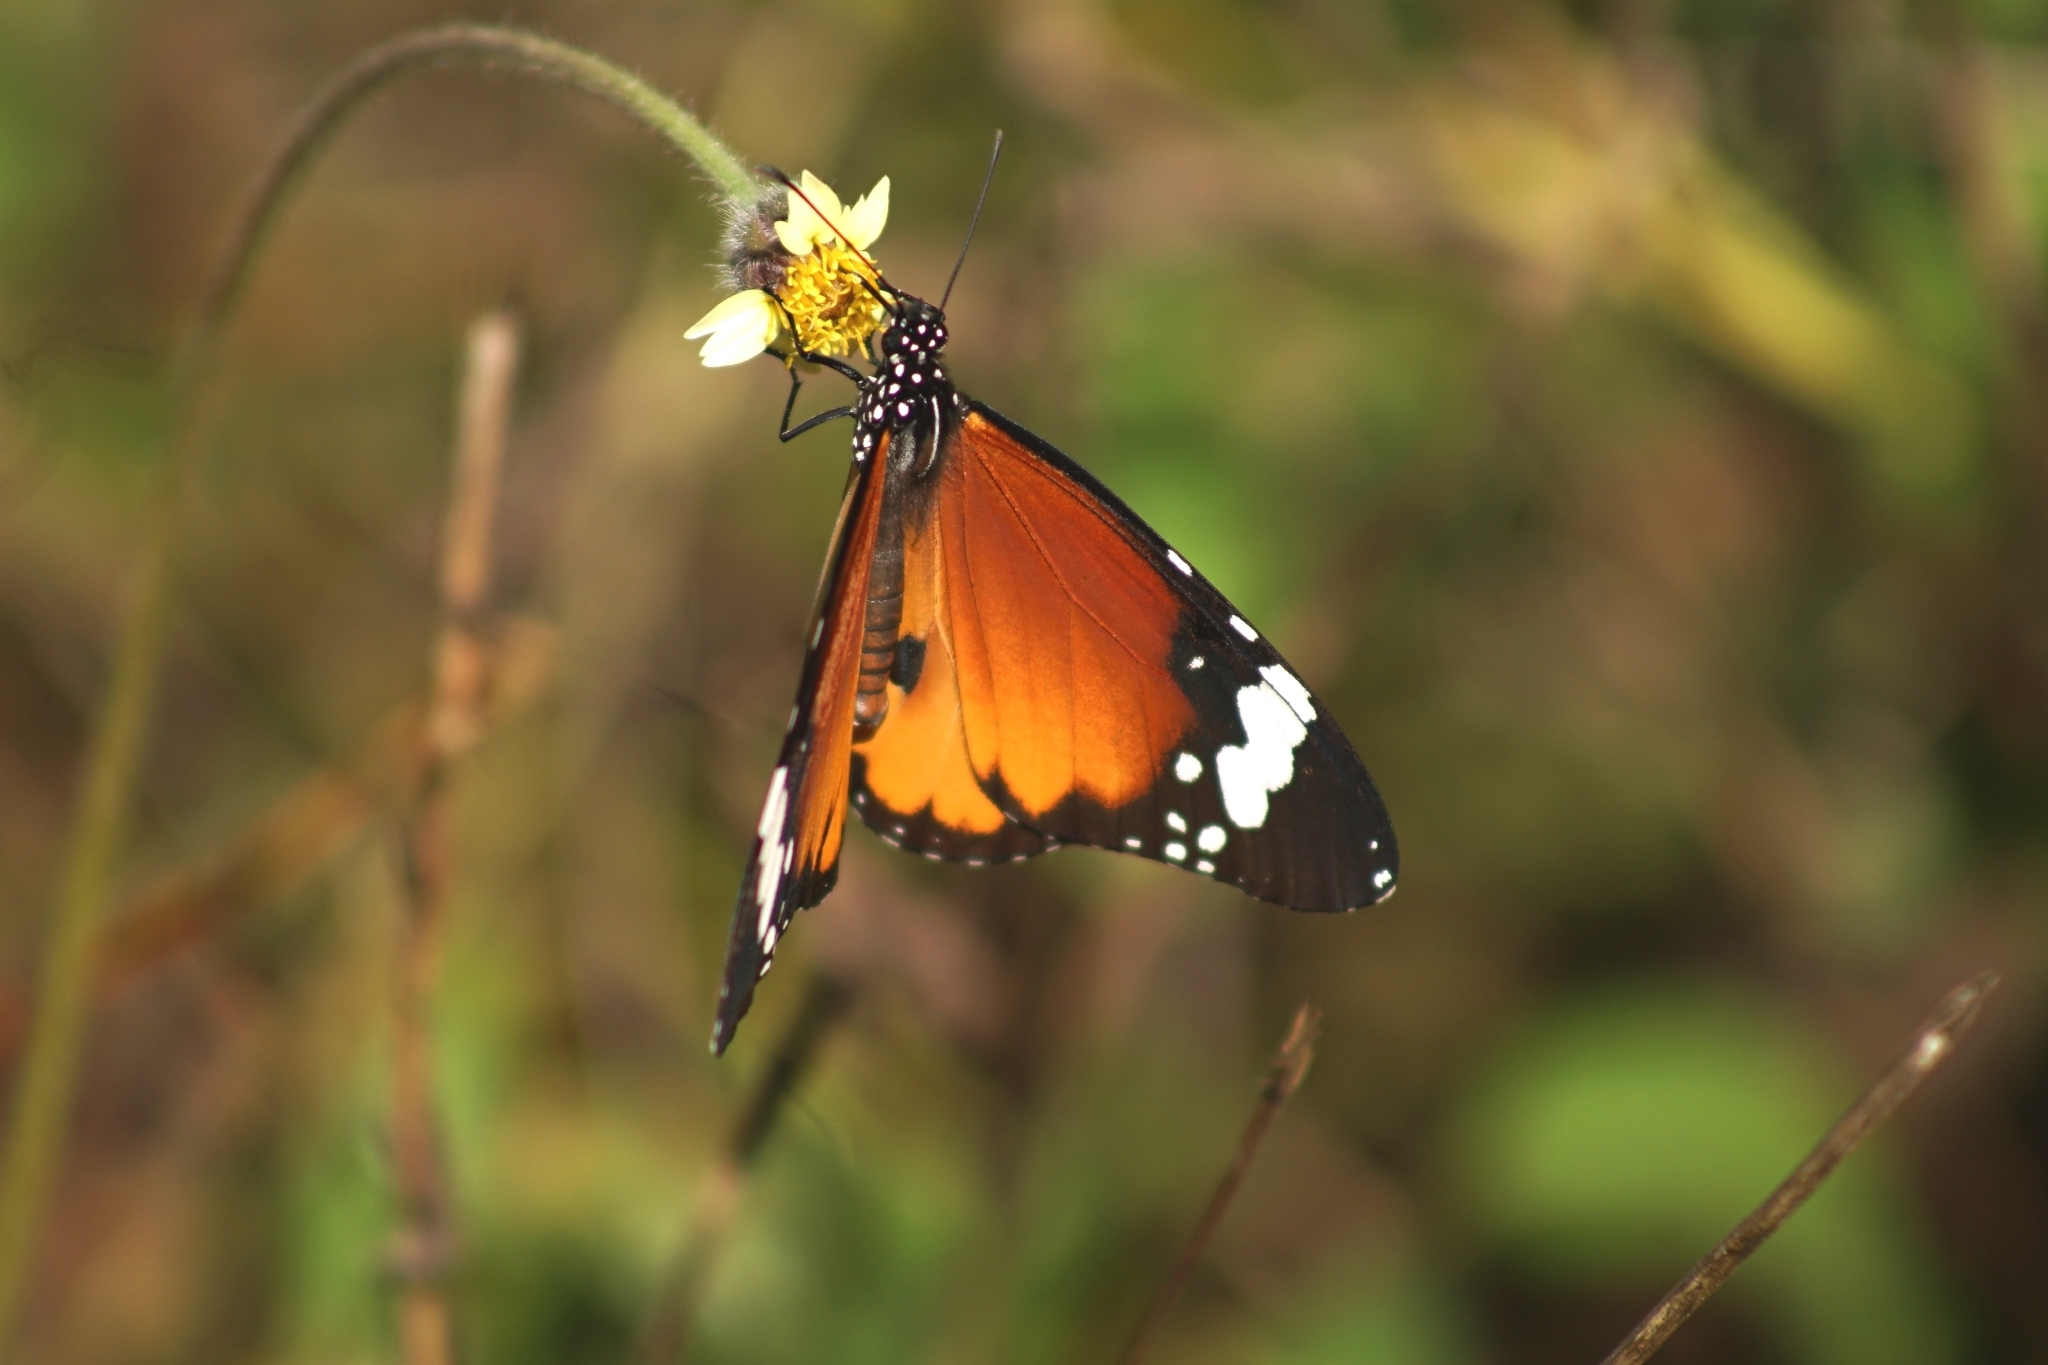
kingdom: Animalia
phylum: Arthropoda
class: Insecta
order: Lepidoptera
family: Nymphalidae
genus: Danaus
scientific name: Danaus chrysippus
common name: Plain tiger
